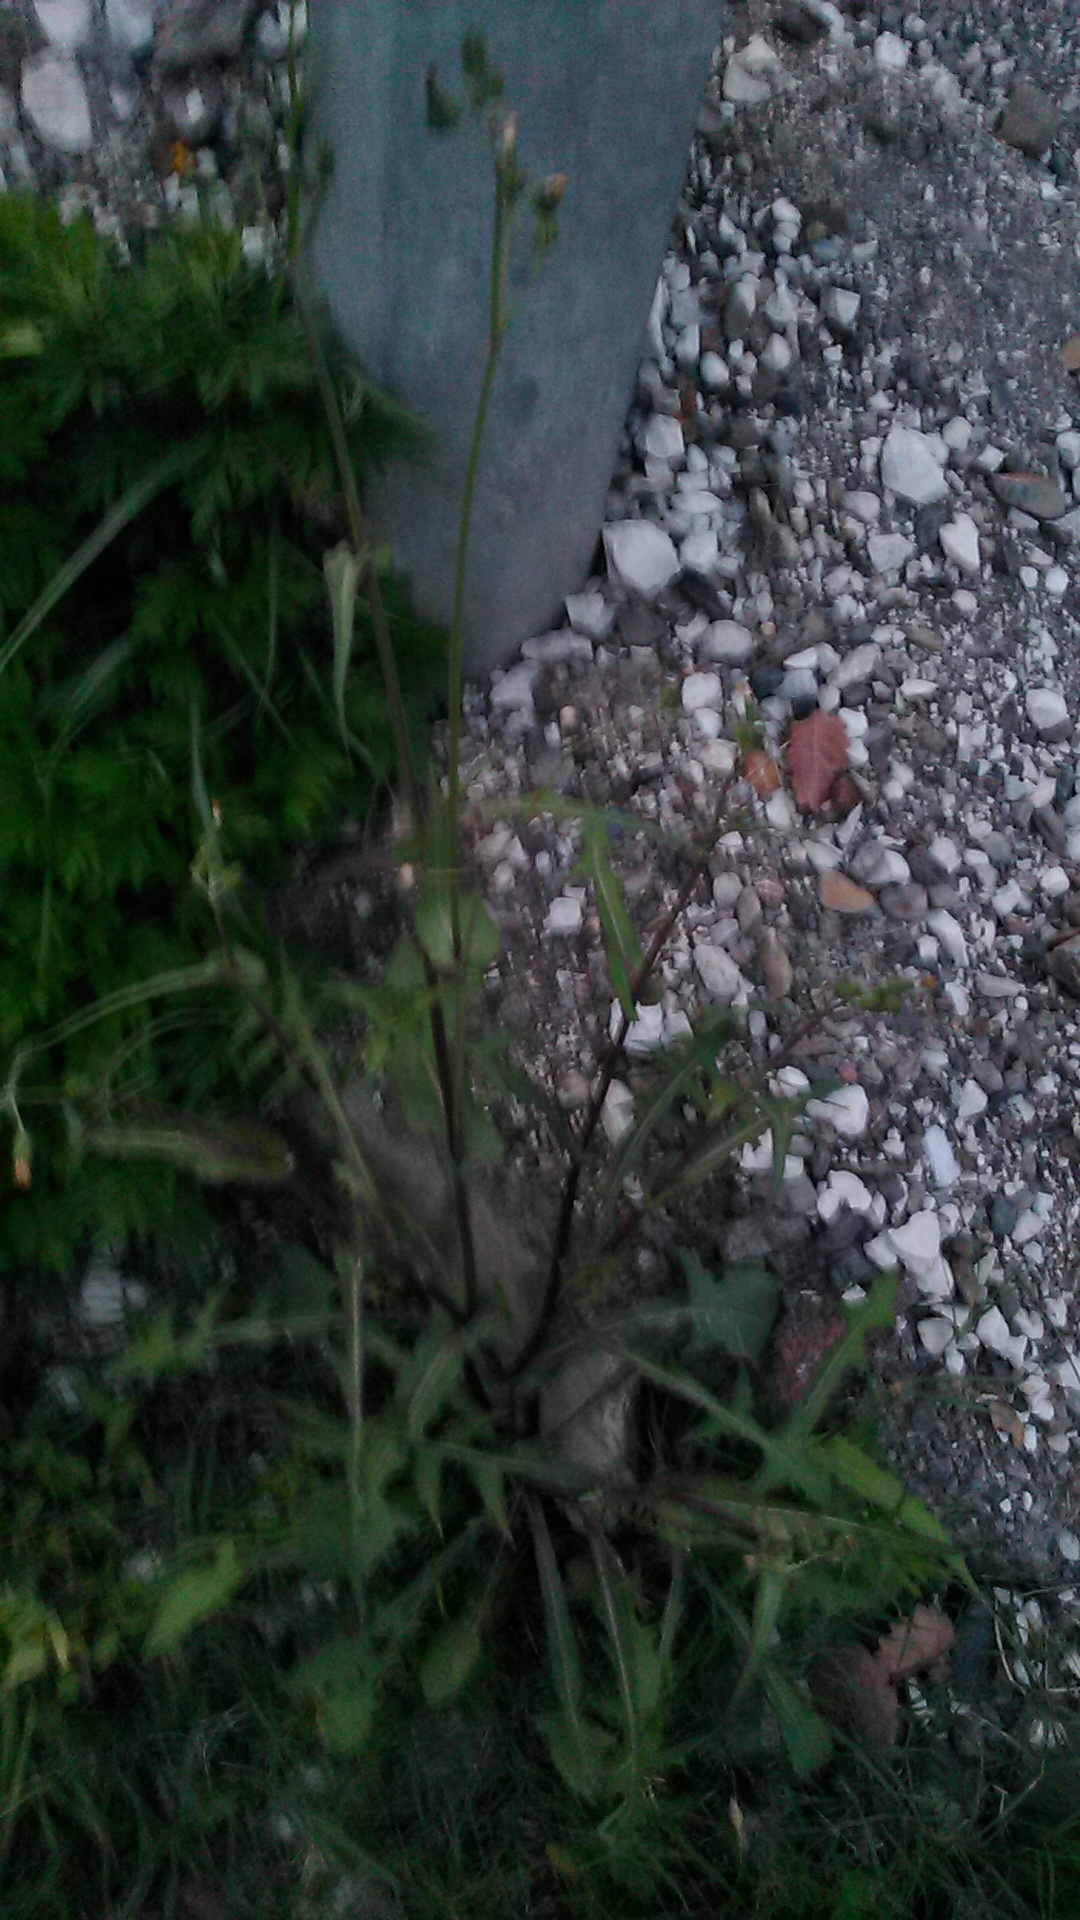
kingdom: Plantae
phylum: Tracheophyta
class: Magnoliopsida
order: Asterales
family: Asteraceae
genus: Sonchus
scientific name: Sonchus oleraceus
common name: Common sowthistle
